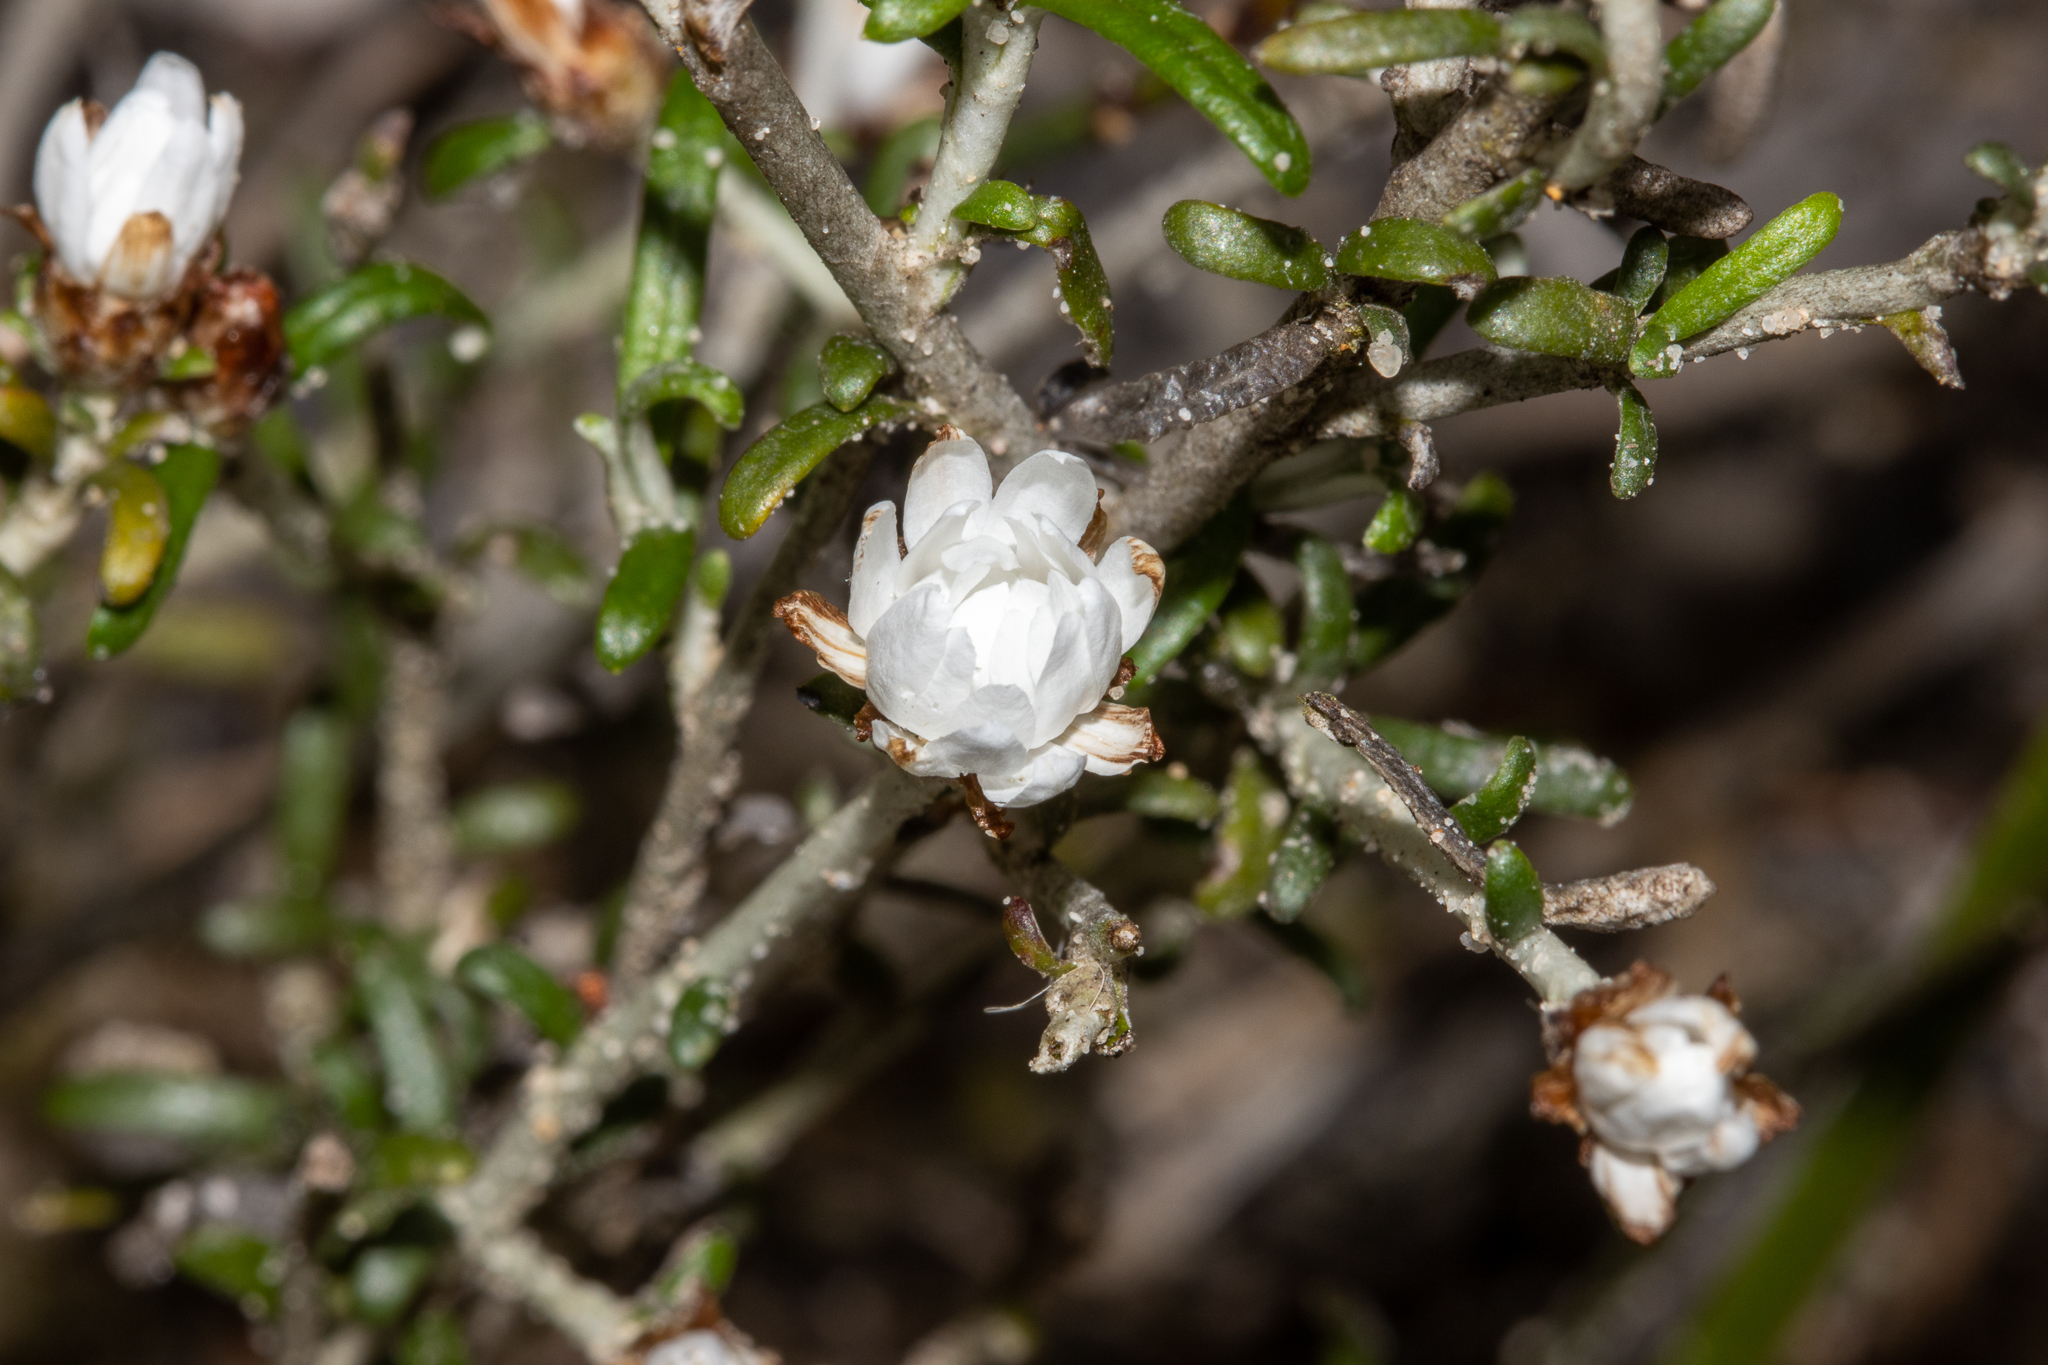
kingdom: Plantae
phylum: Tracheophyta
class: Magnoliopsida
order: Asterales
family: Asteraceae
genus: Argentipallium
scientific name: Argentipallium obtusifolium
